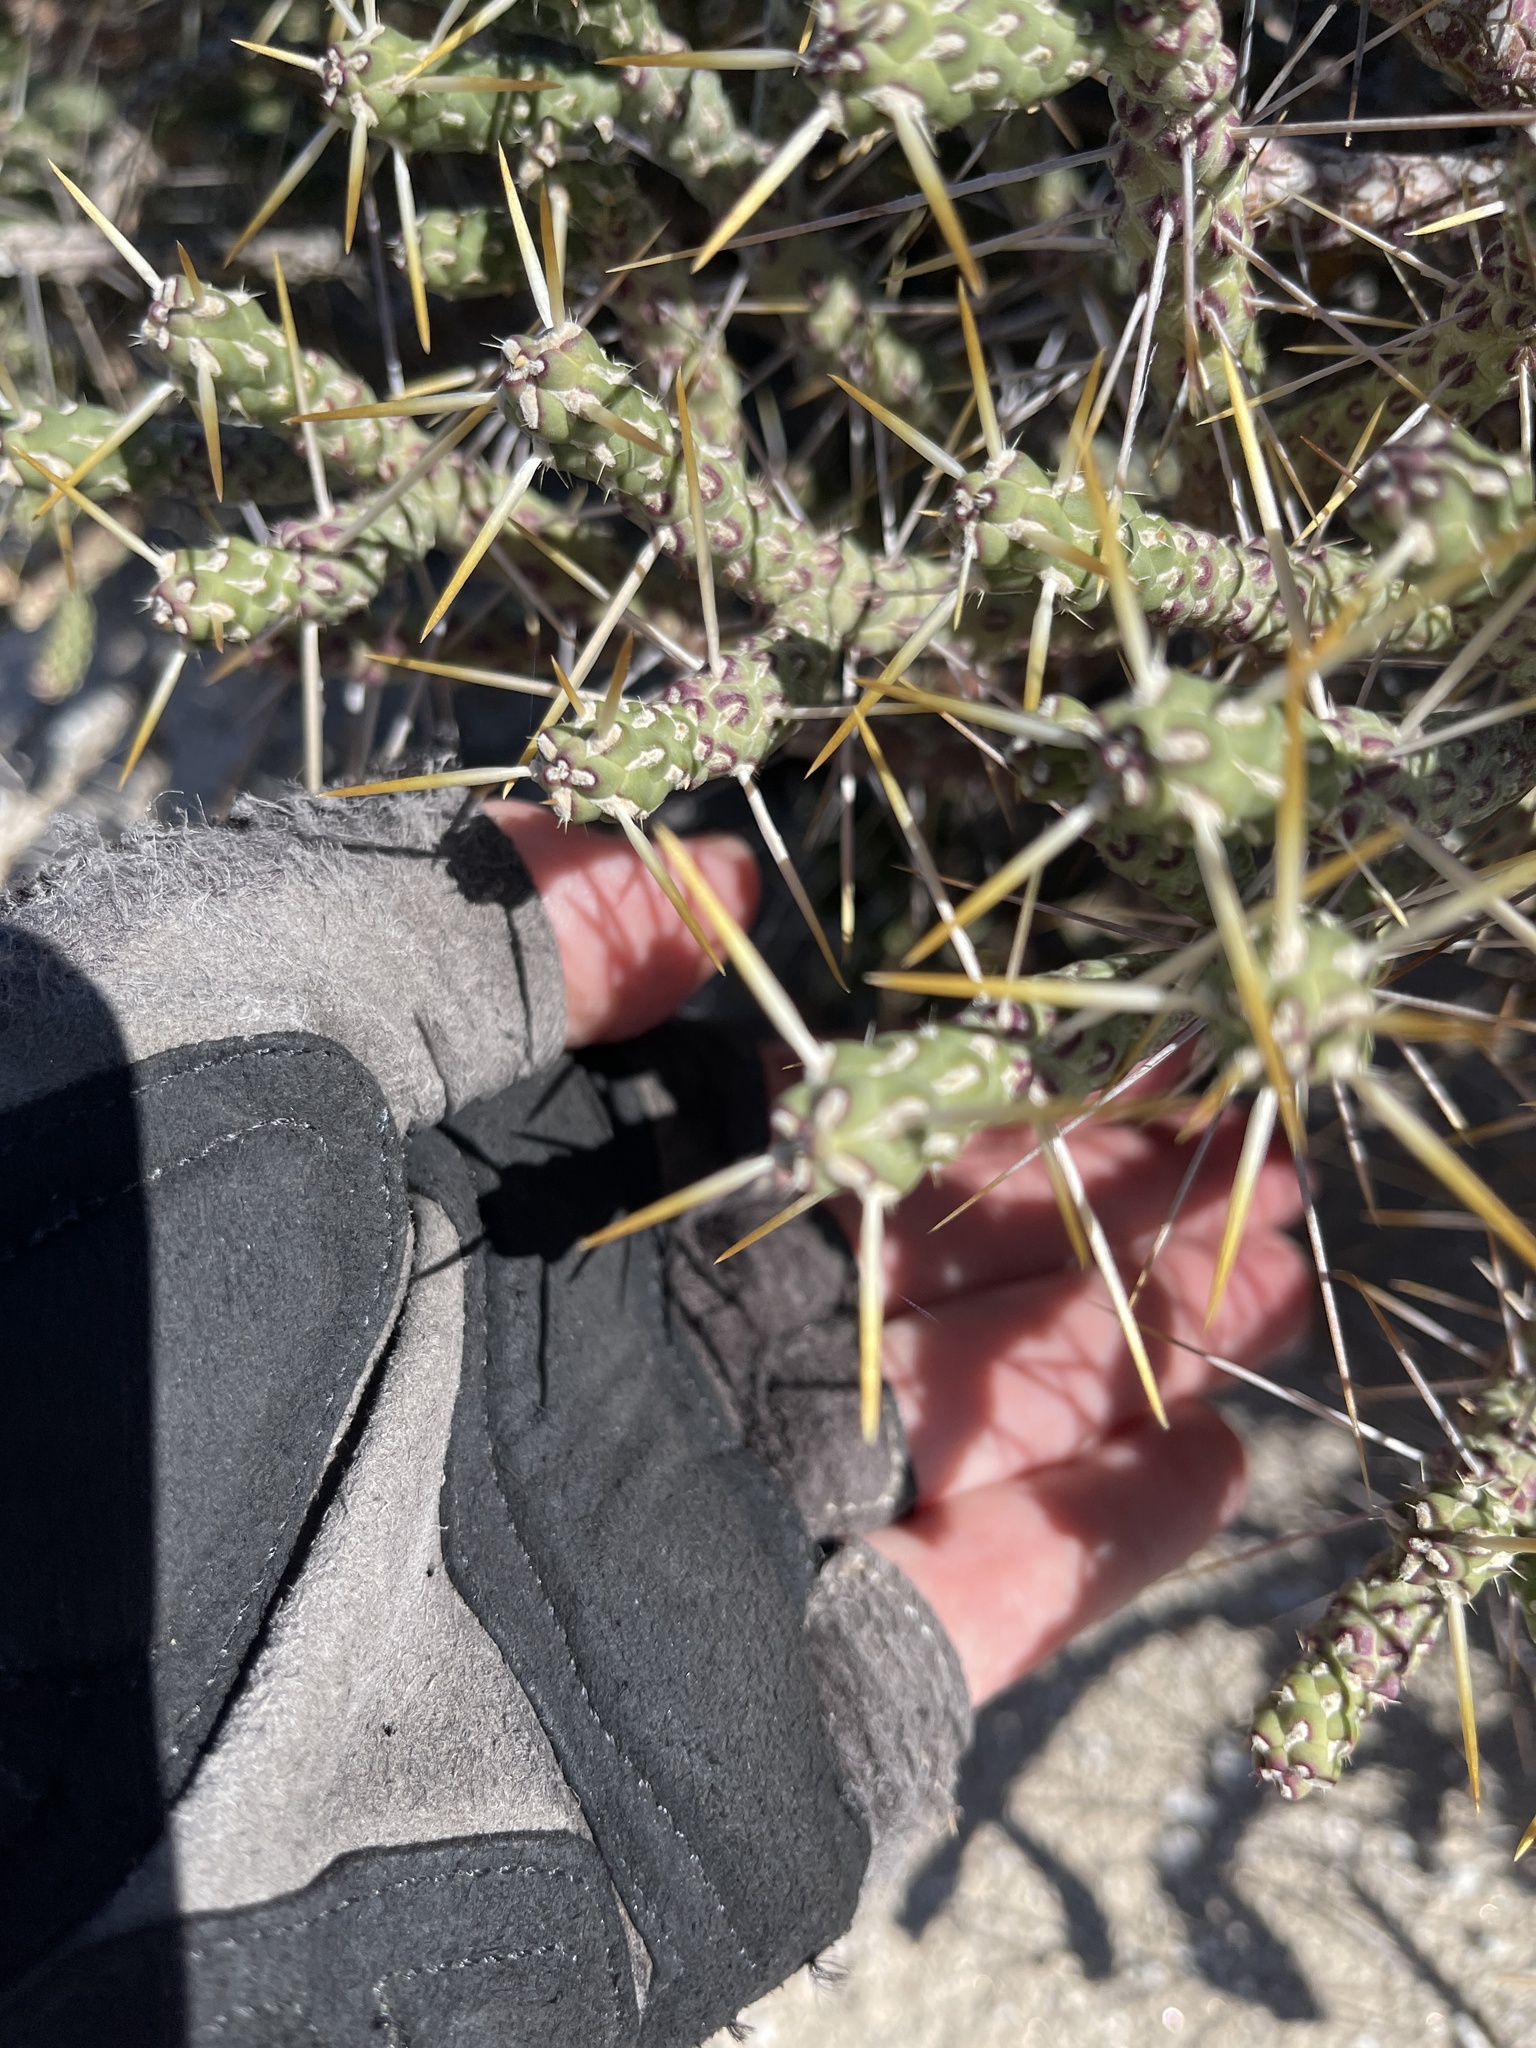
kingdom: Plantae
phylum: Tracheophyta
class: Magnoliopsida
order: Caryophyllales
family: Cactaceae
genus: Cylindropuntia
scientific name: Cylindropuntia ramosissima
